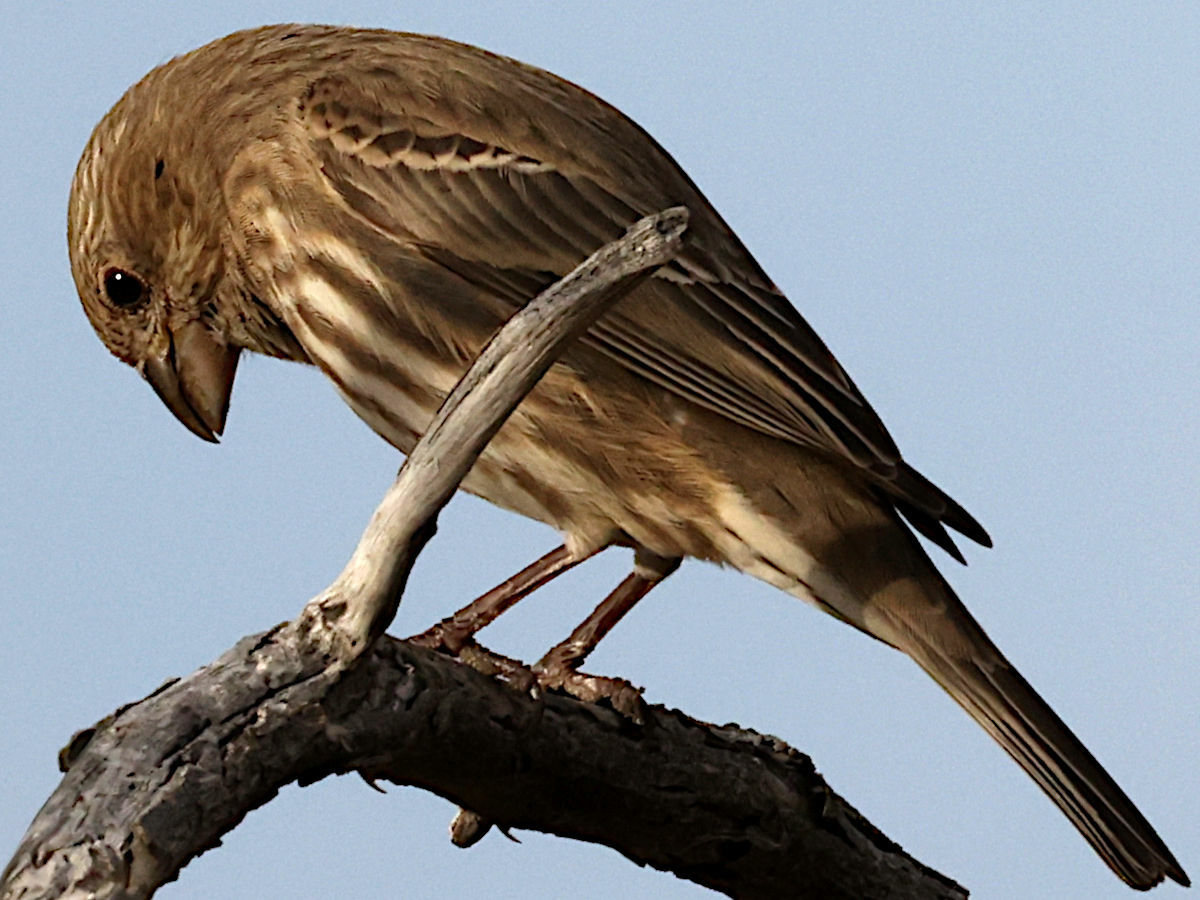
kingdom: Animalia
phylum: Chordata
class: Aves
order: Passeriformes
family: Fringillidae
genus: Haemorhous
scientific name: Haemorhous mexicanus
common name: House finch
